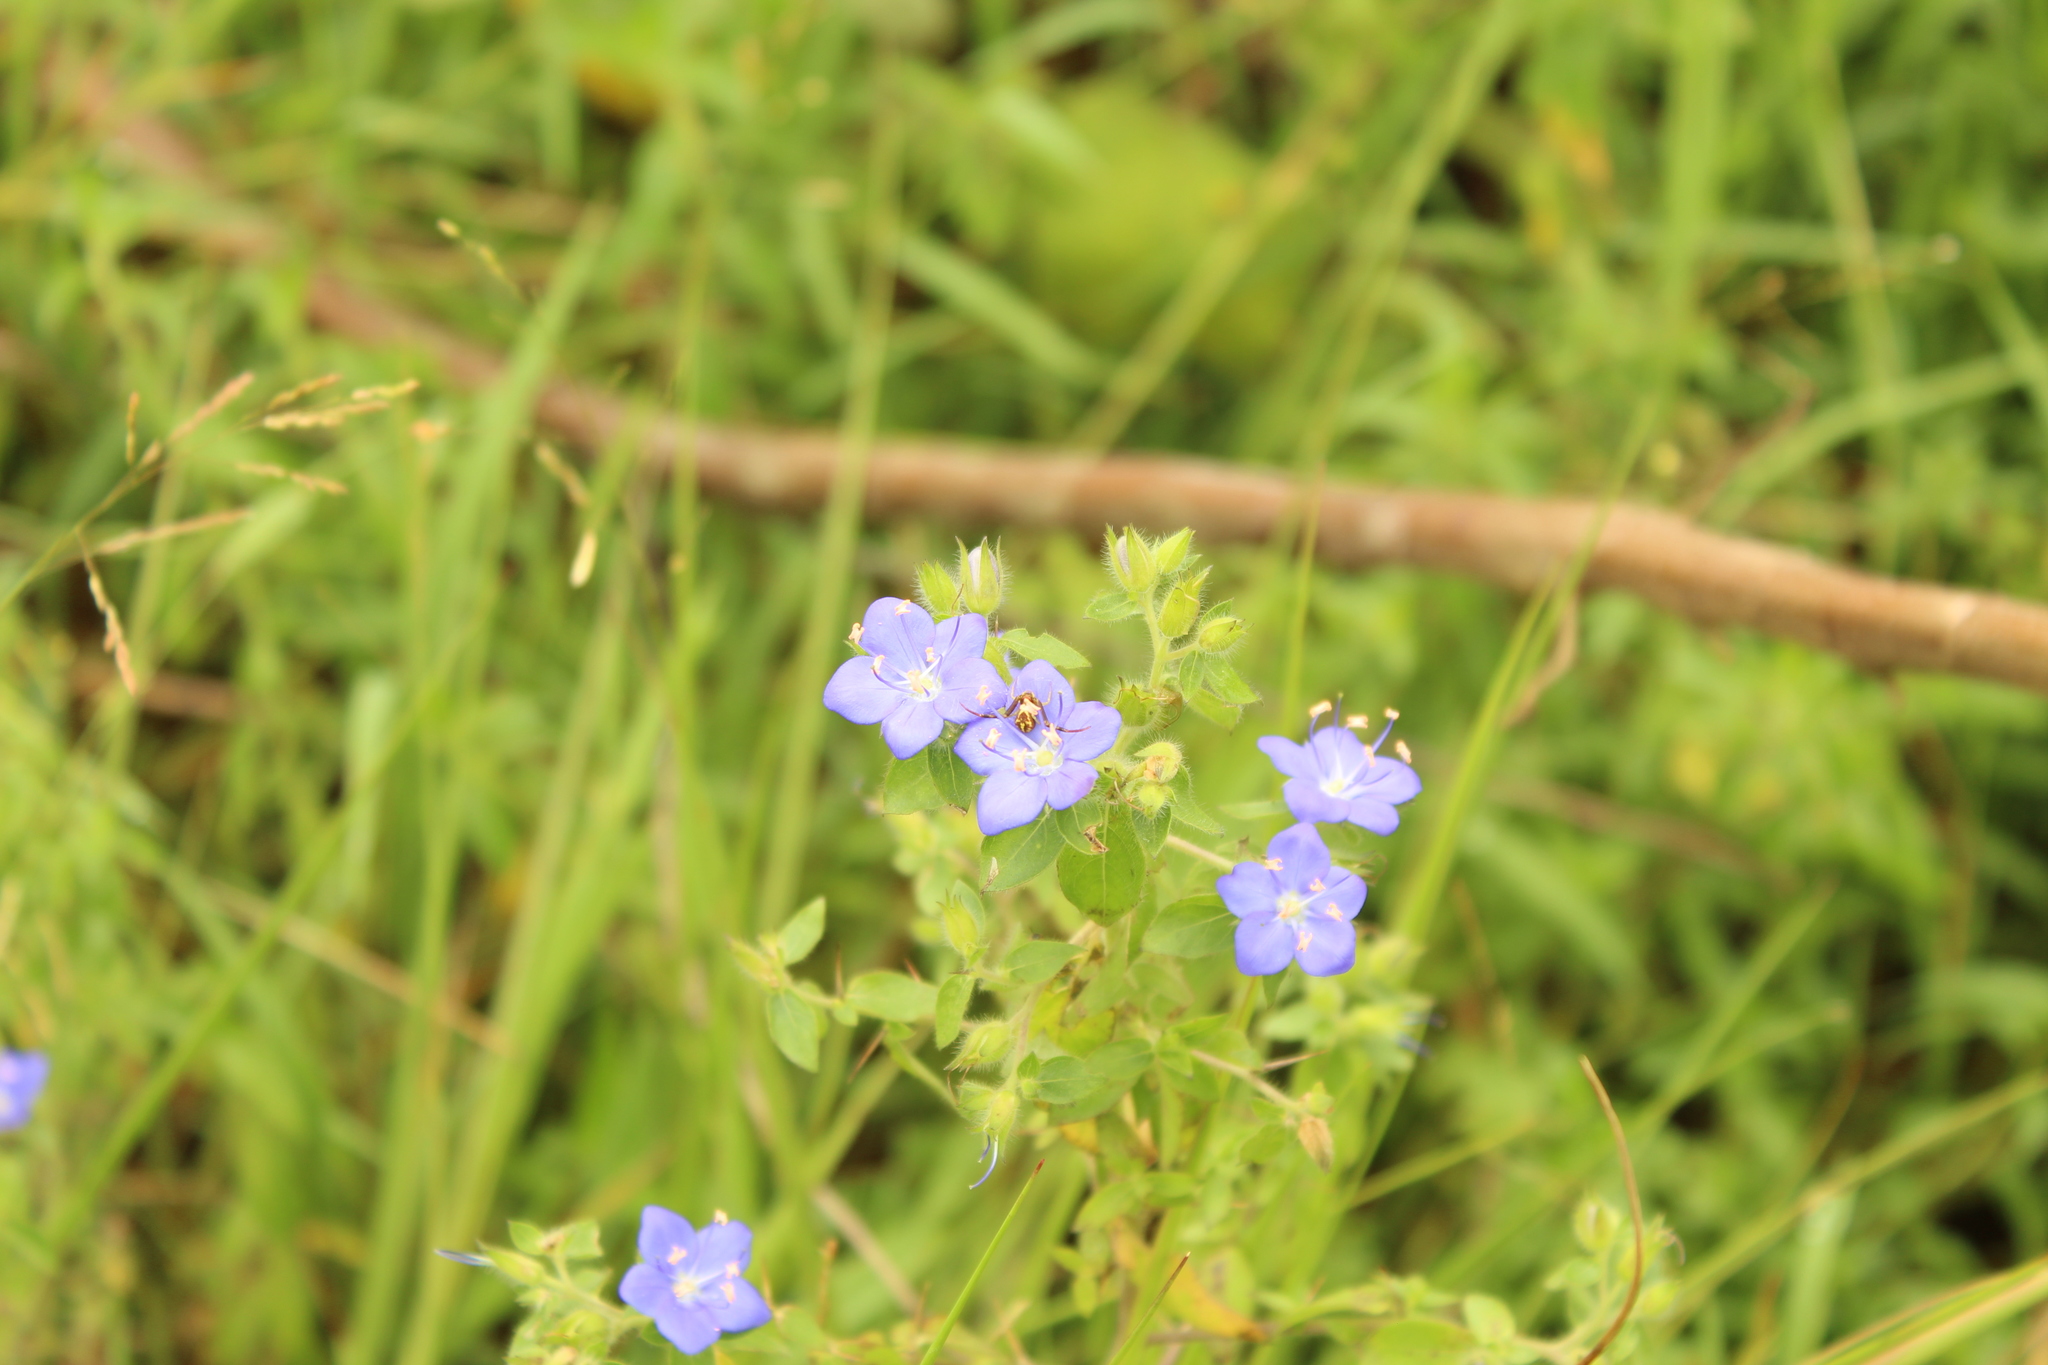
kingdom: Plantae
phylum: Tracheophyta
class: Magnoliopsida
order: Solanales
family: Hydroleaceae
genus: Hydrolea
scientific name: Hydrolea spinosa
